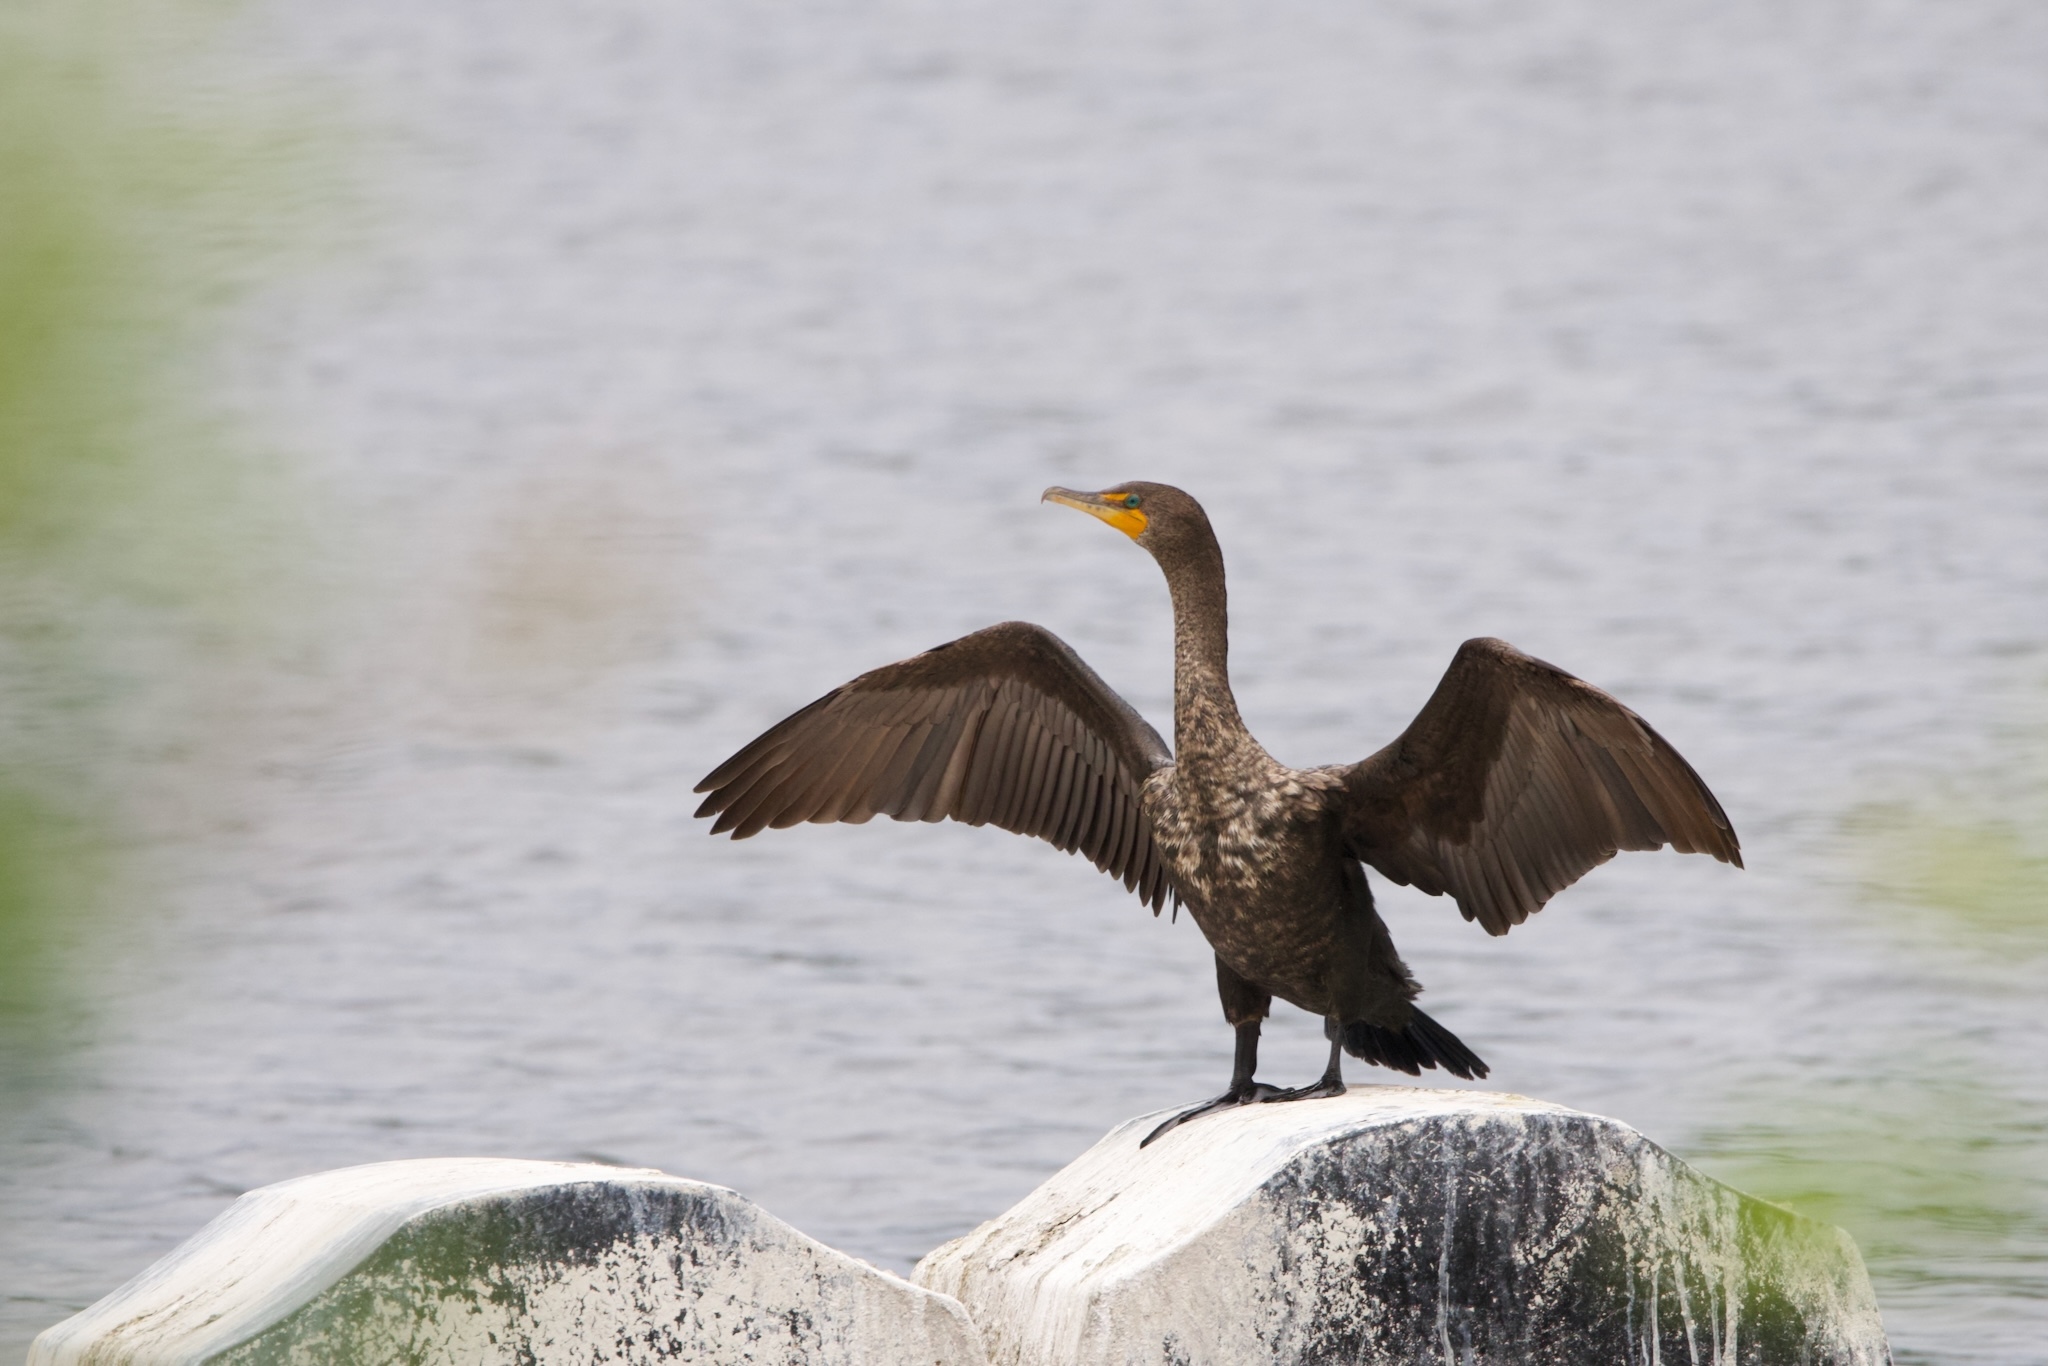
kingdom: Animalia
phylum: Chordata
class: Aves
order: Suliformes
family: Phalacrocoracidae
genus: Phalacrocorax
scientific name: Phalacrocorax auritus
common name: Double-crested cormorant
